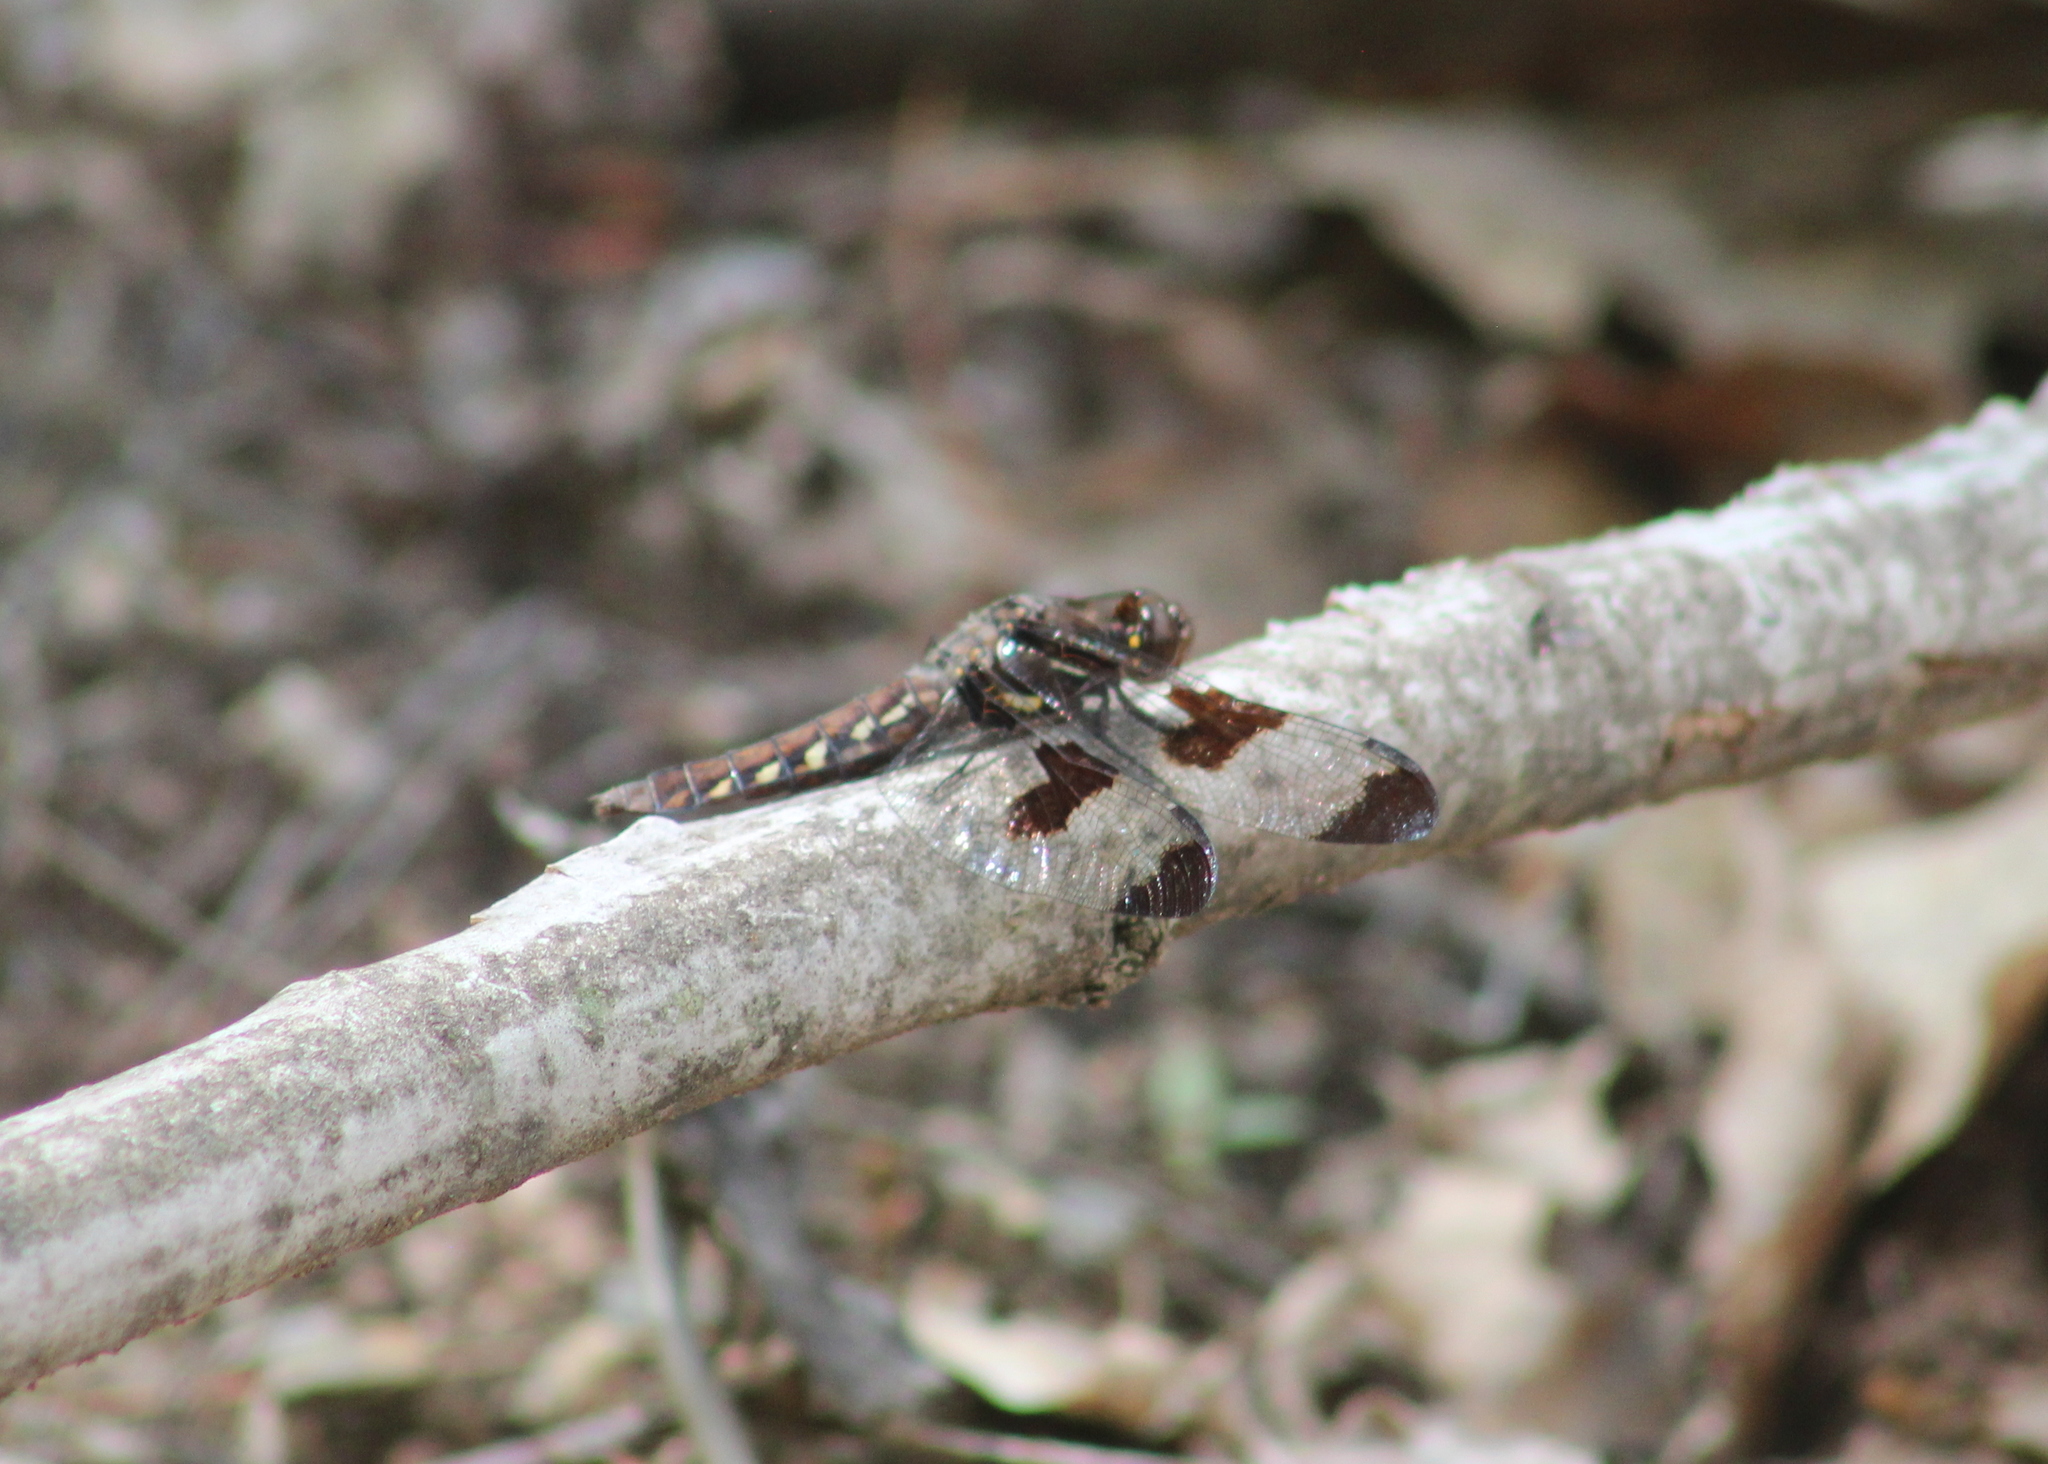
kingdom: Animalia
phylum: Arthropoda
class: Insecta
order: Odonata
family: Libellulidae
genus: Plathemis
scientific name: Plathemis lydia
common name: Common whitetail
